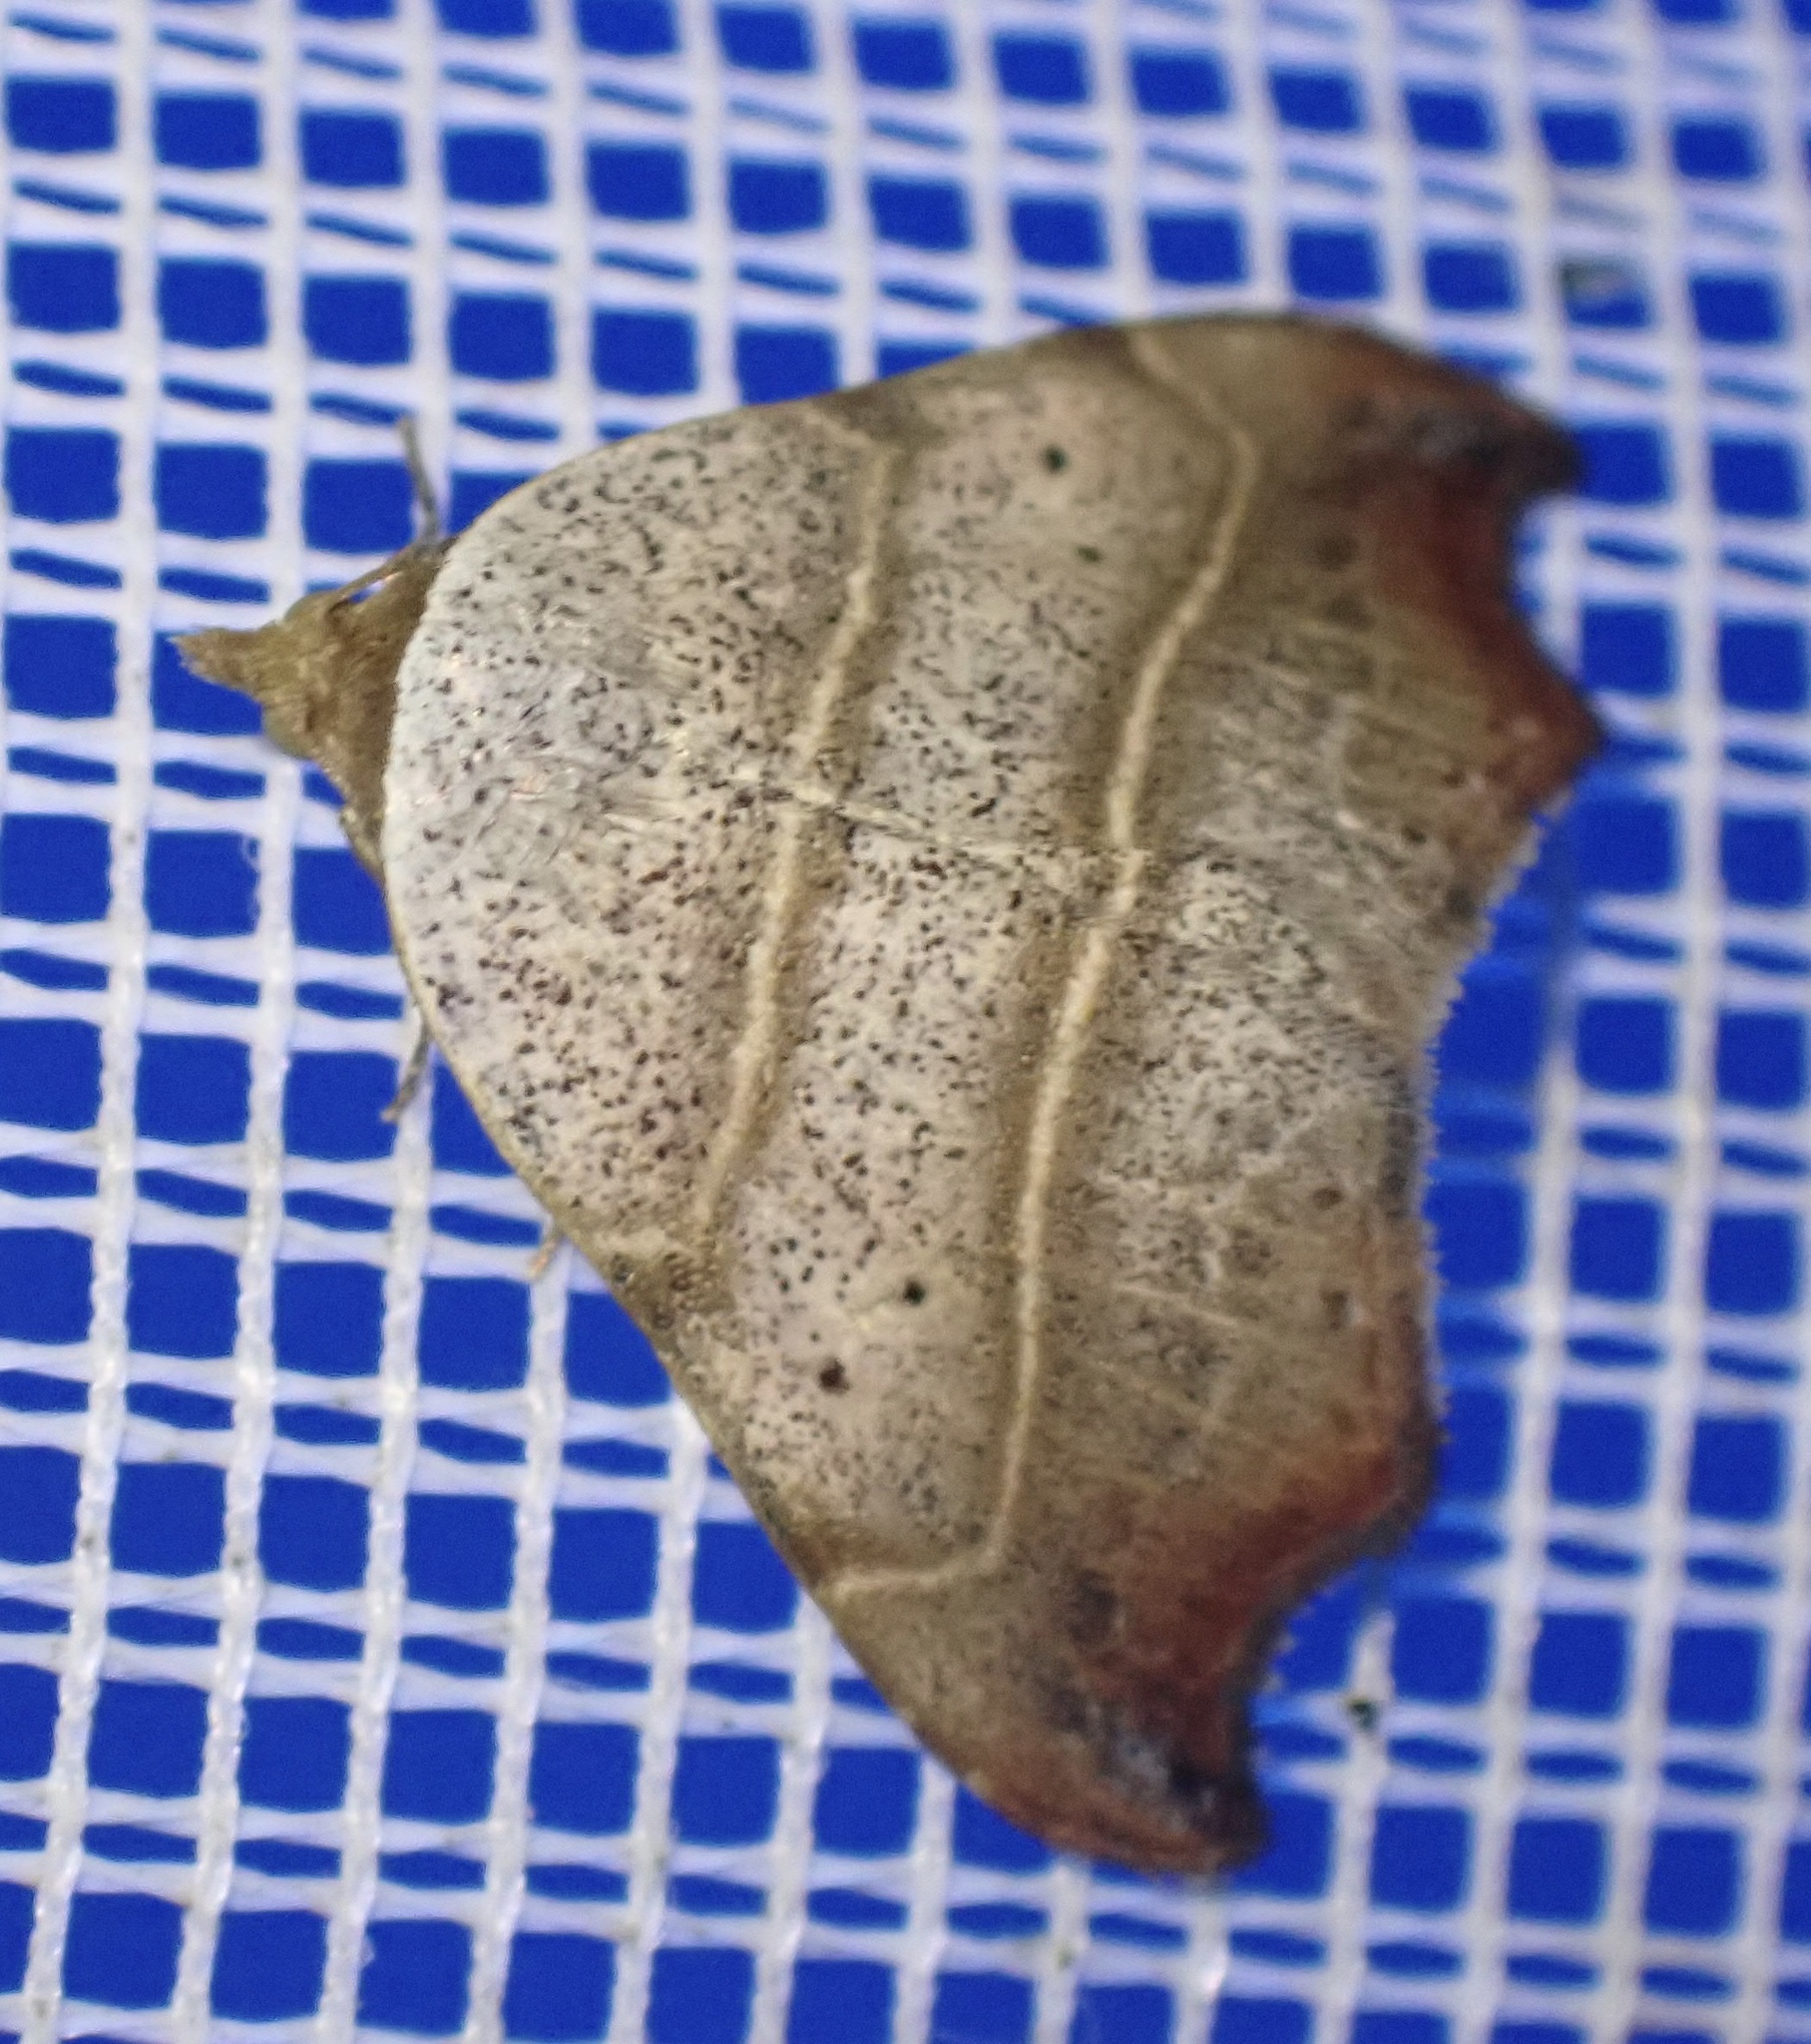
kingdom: Animalia
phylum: Arthropoda
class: Insecta
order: Lepidoptera
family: Erebidae
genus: Laspeyria
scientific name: Laspeyria flexula
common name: Beautiful hook-tip
